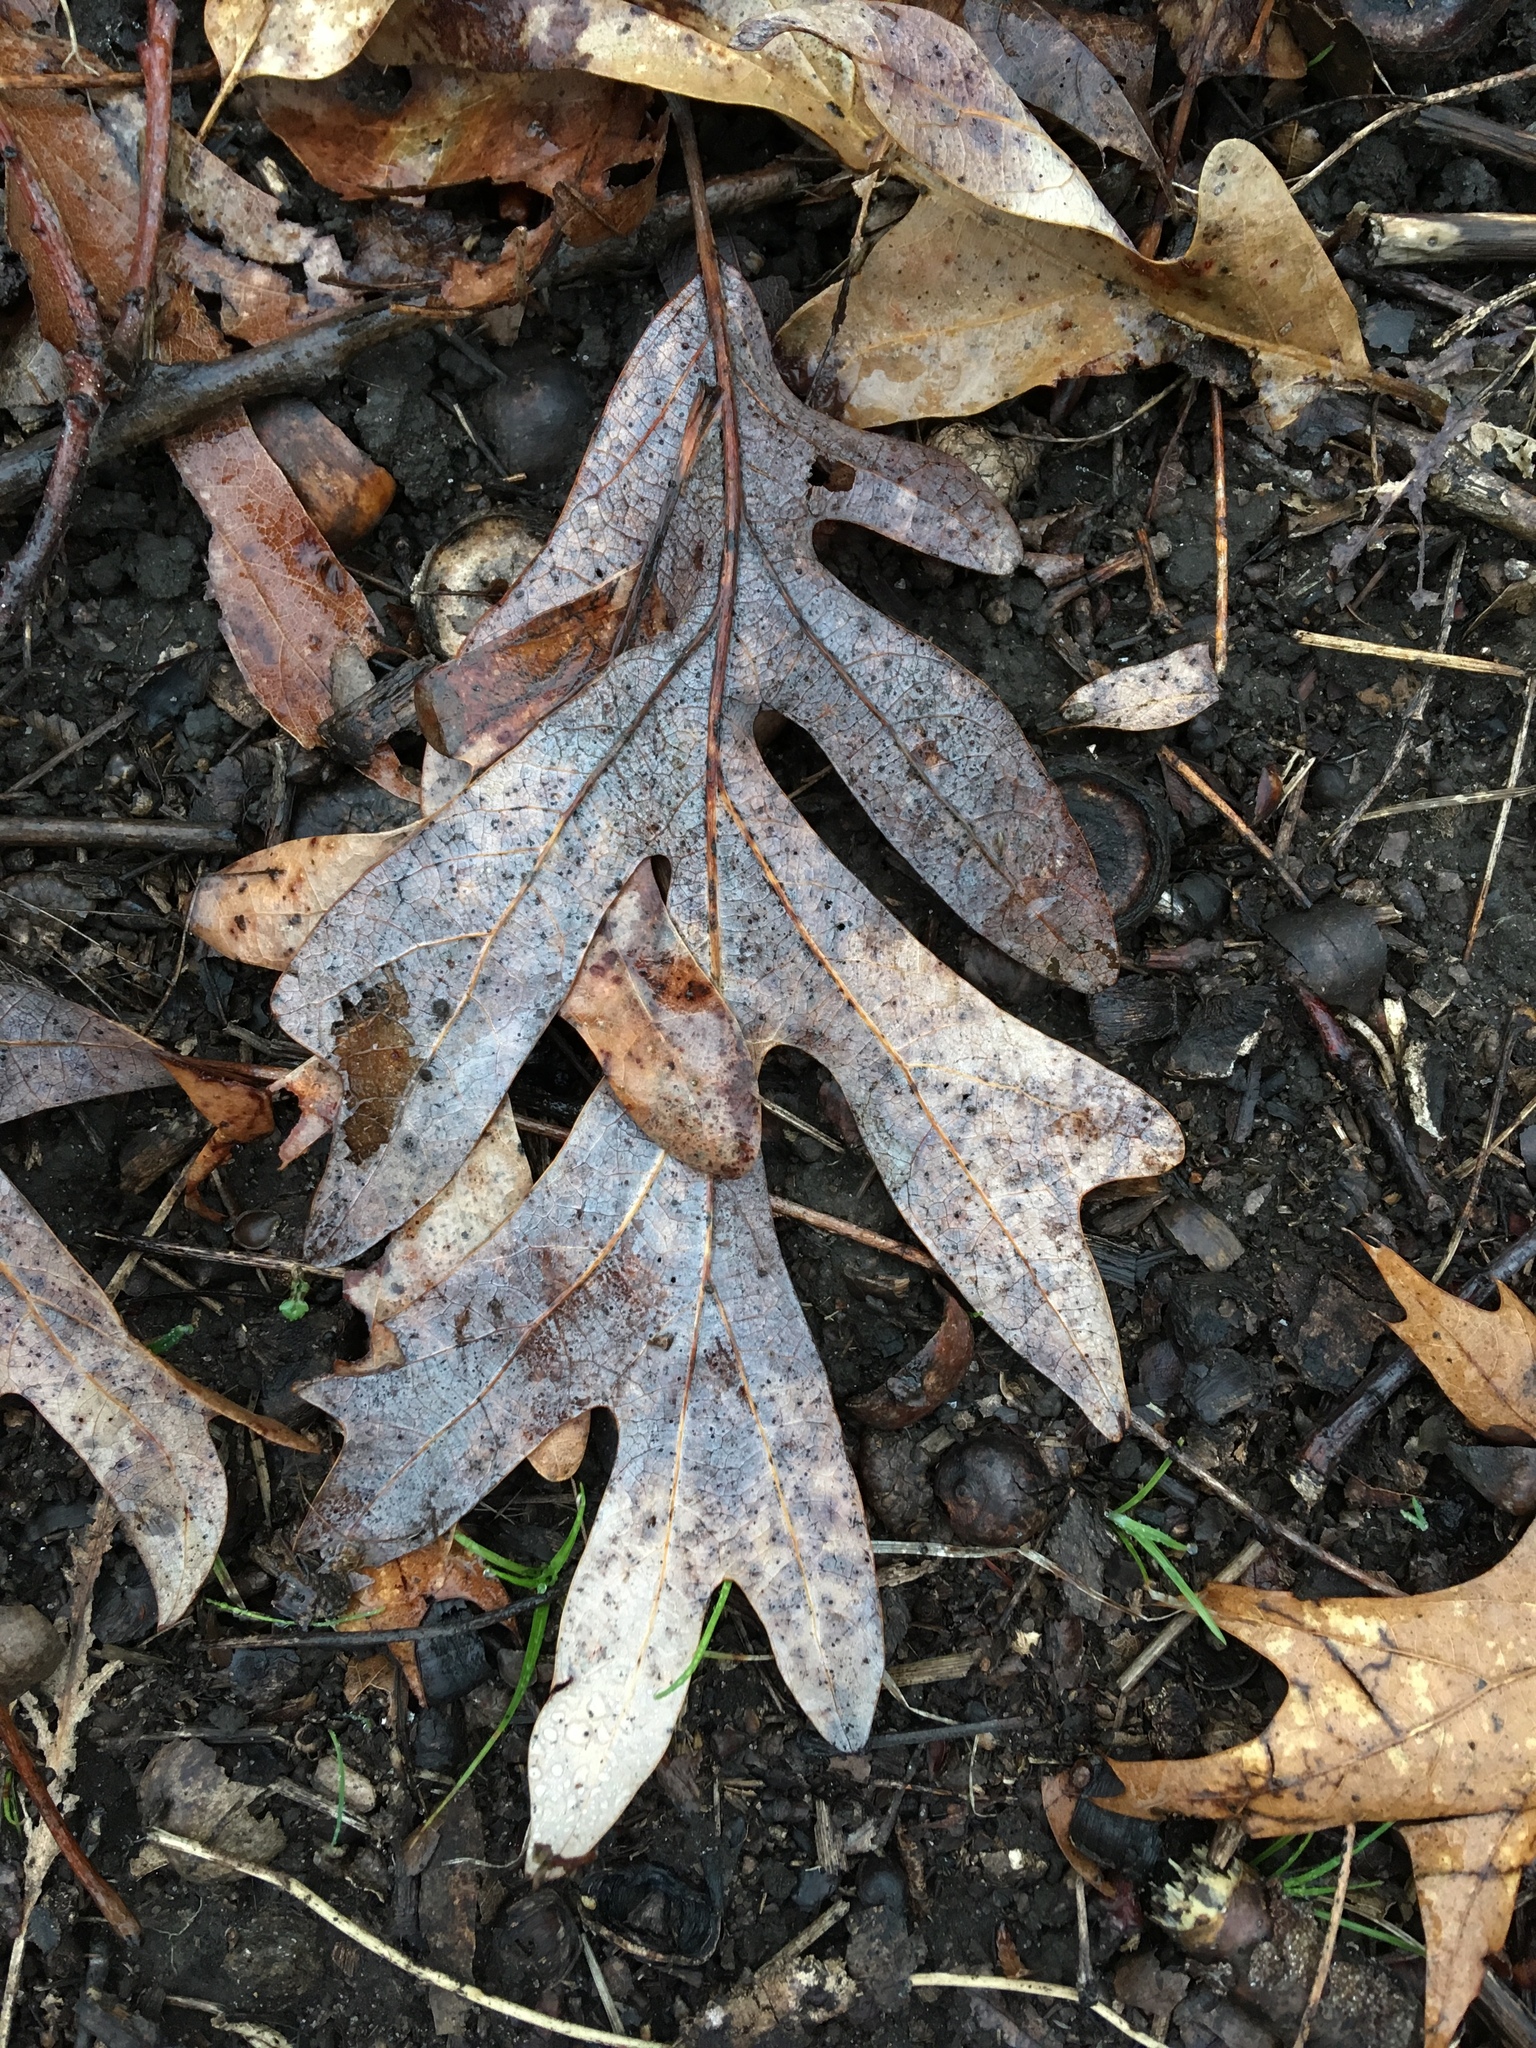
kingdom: Plantae
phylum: Tracheophyta
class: Magnoliopsida
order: Fagales
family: Fagaceae
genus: Quercus
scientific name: Quercus alba
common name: White oak
